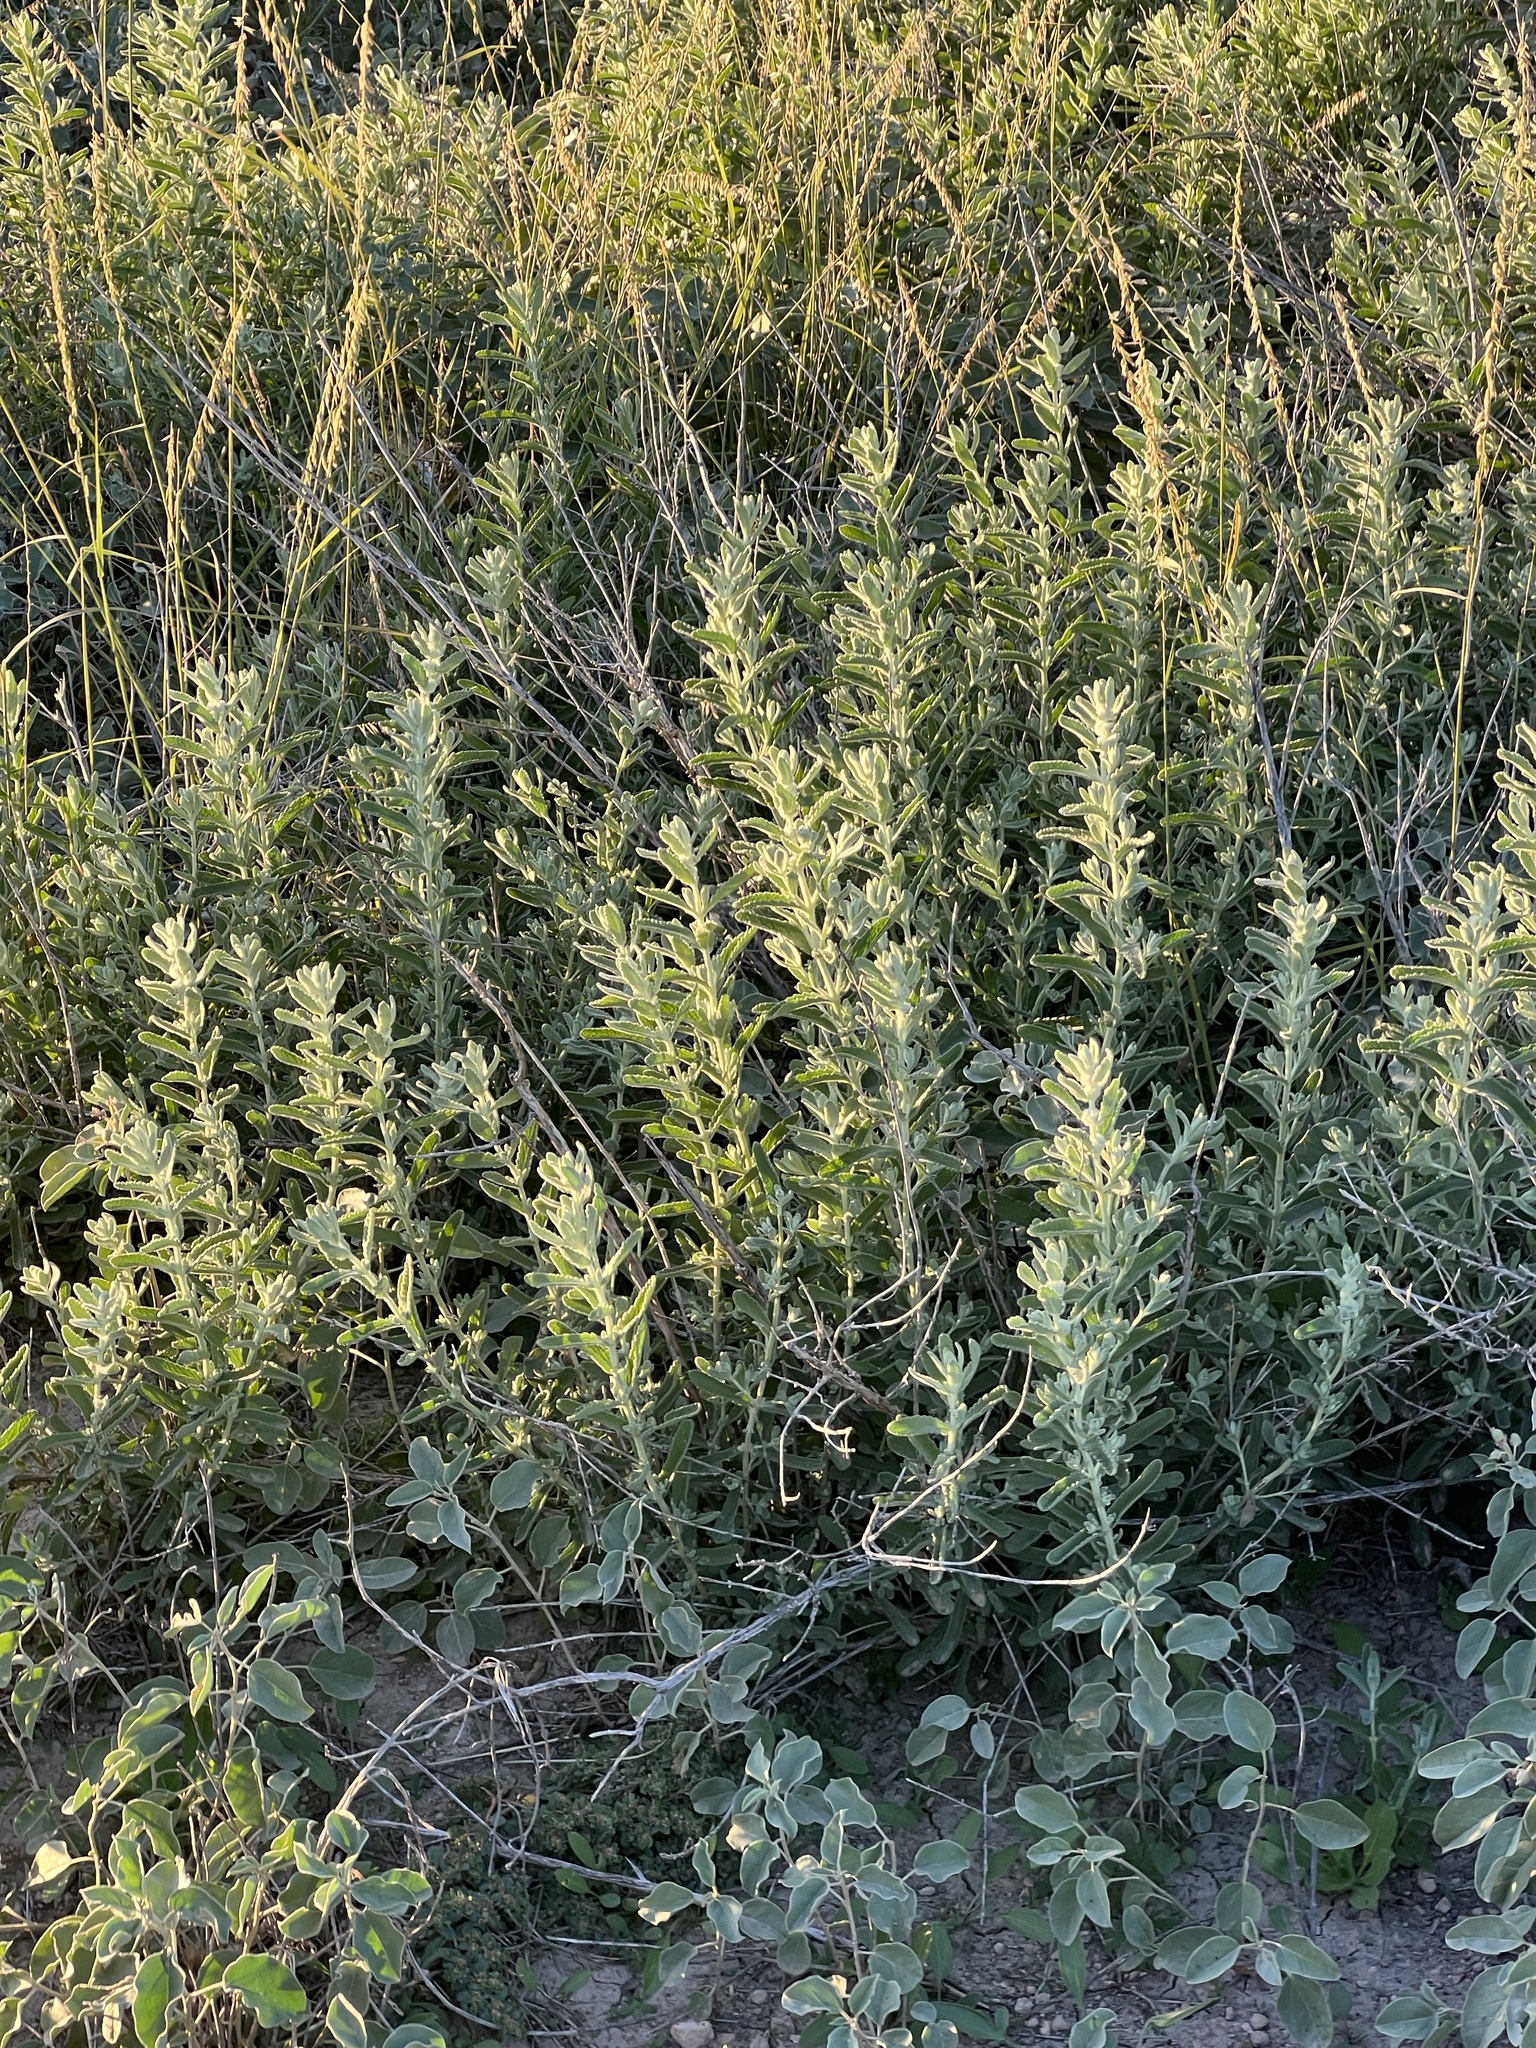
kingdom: Plantae
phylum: Tracheophyta
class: Magnoliopsida
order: Lamiales
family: Scrophulariaceae
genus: Buddleja
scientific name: Buddleja scordioides
